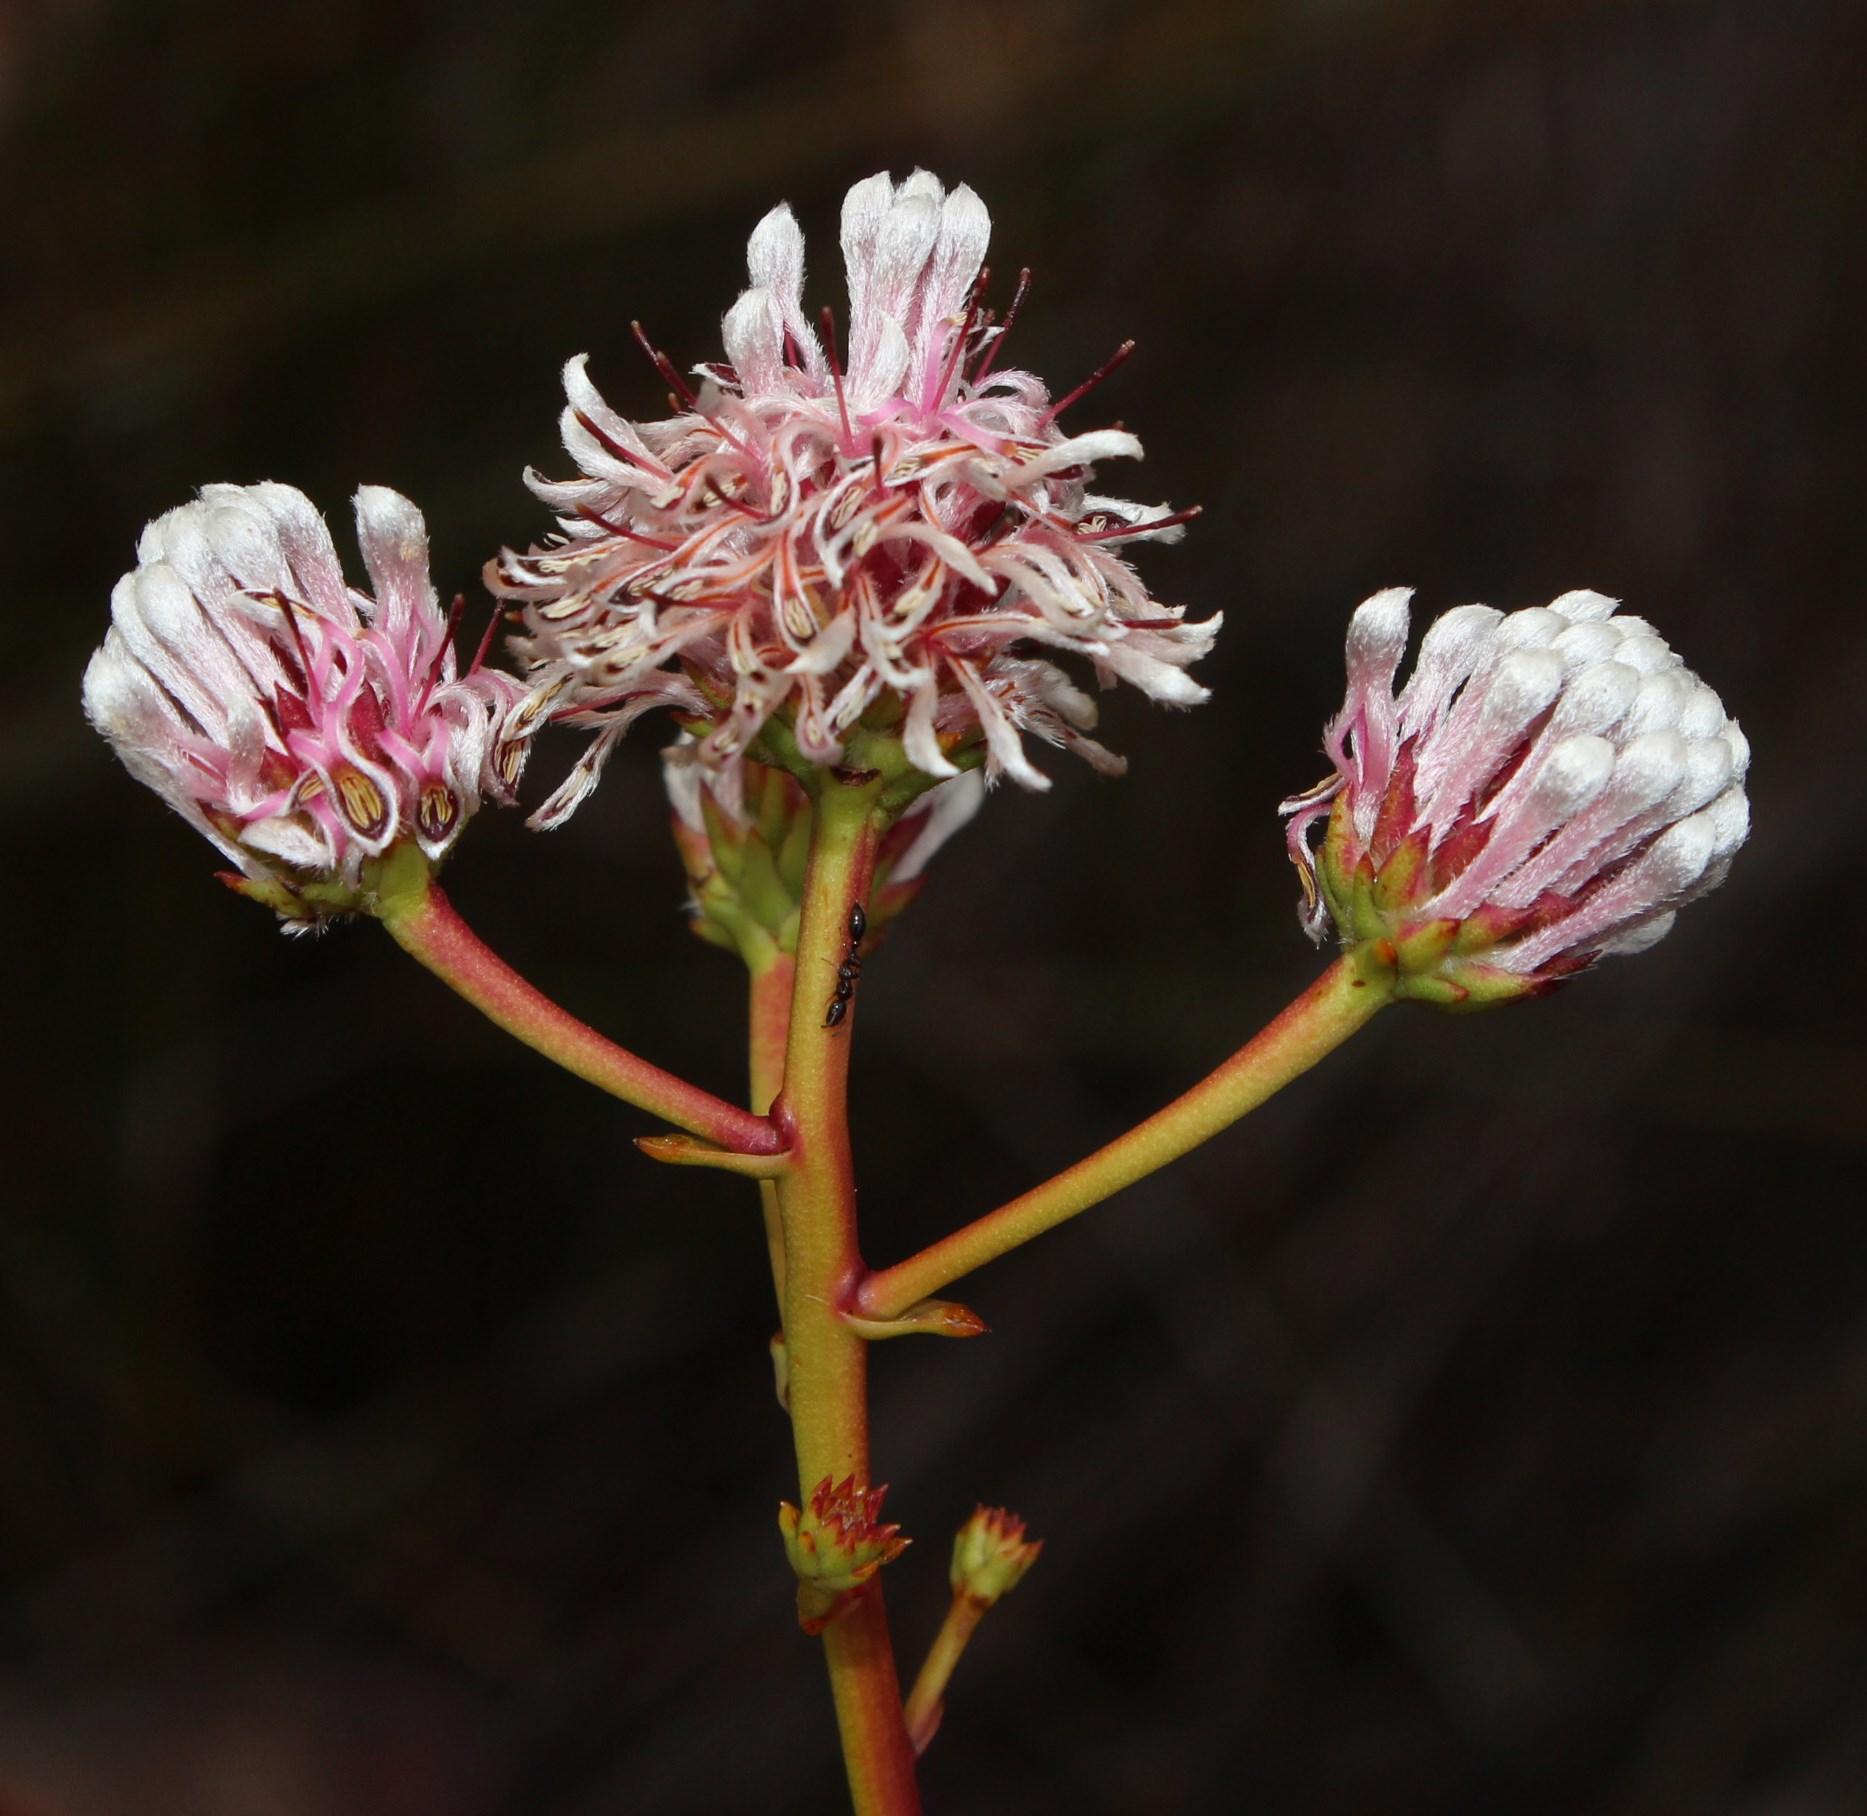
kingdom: Plantae
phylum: Tracheophyta
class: Magnoliopsida
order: Proteales
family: Proteaceae
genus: Serruria
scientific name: Serruria williamsii
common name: King spiderhead
